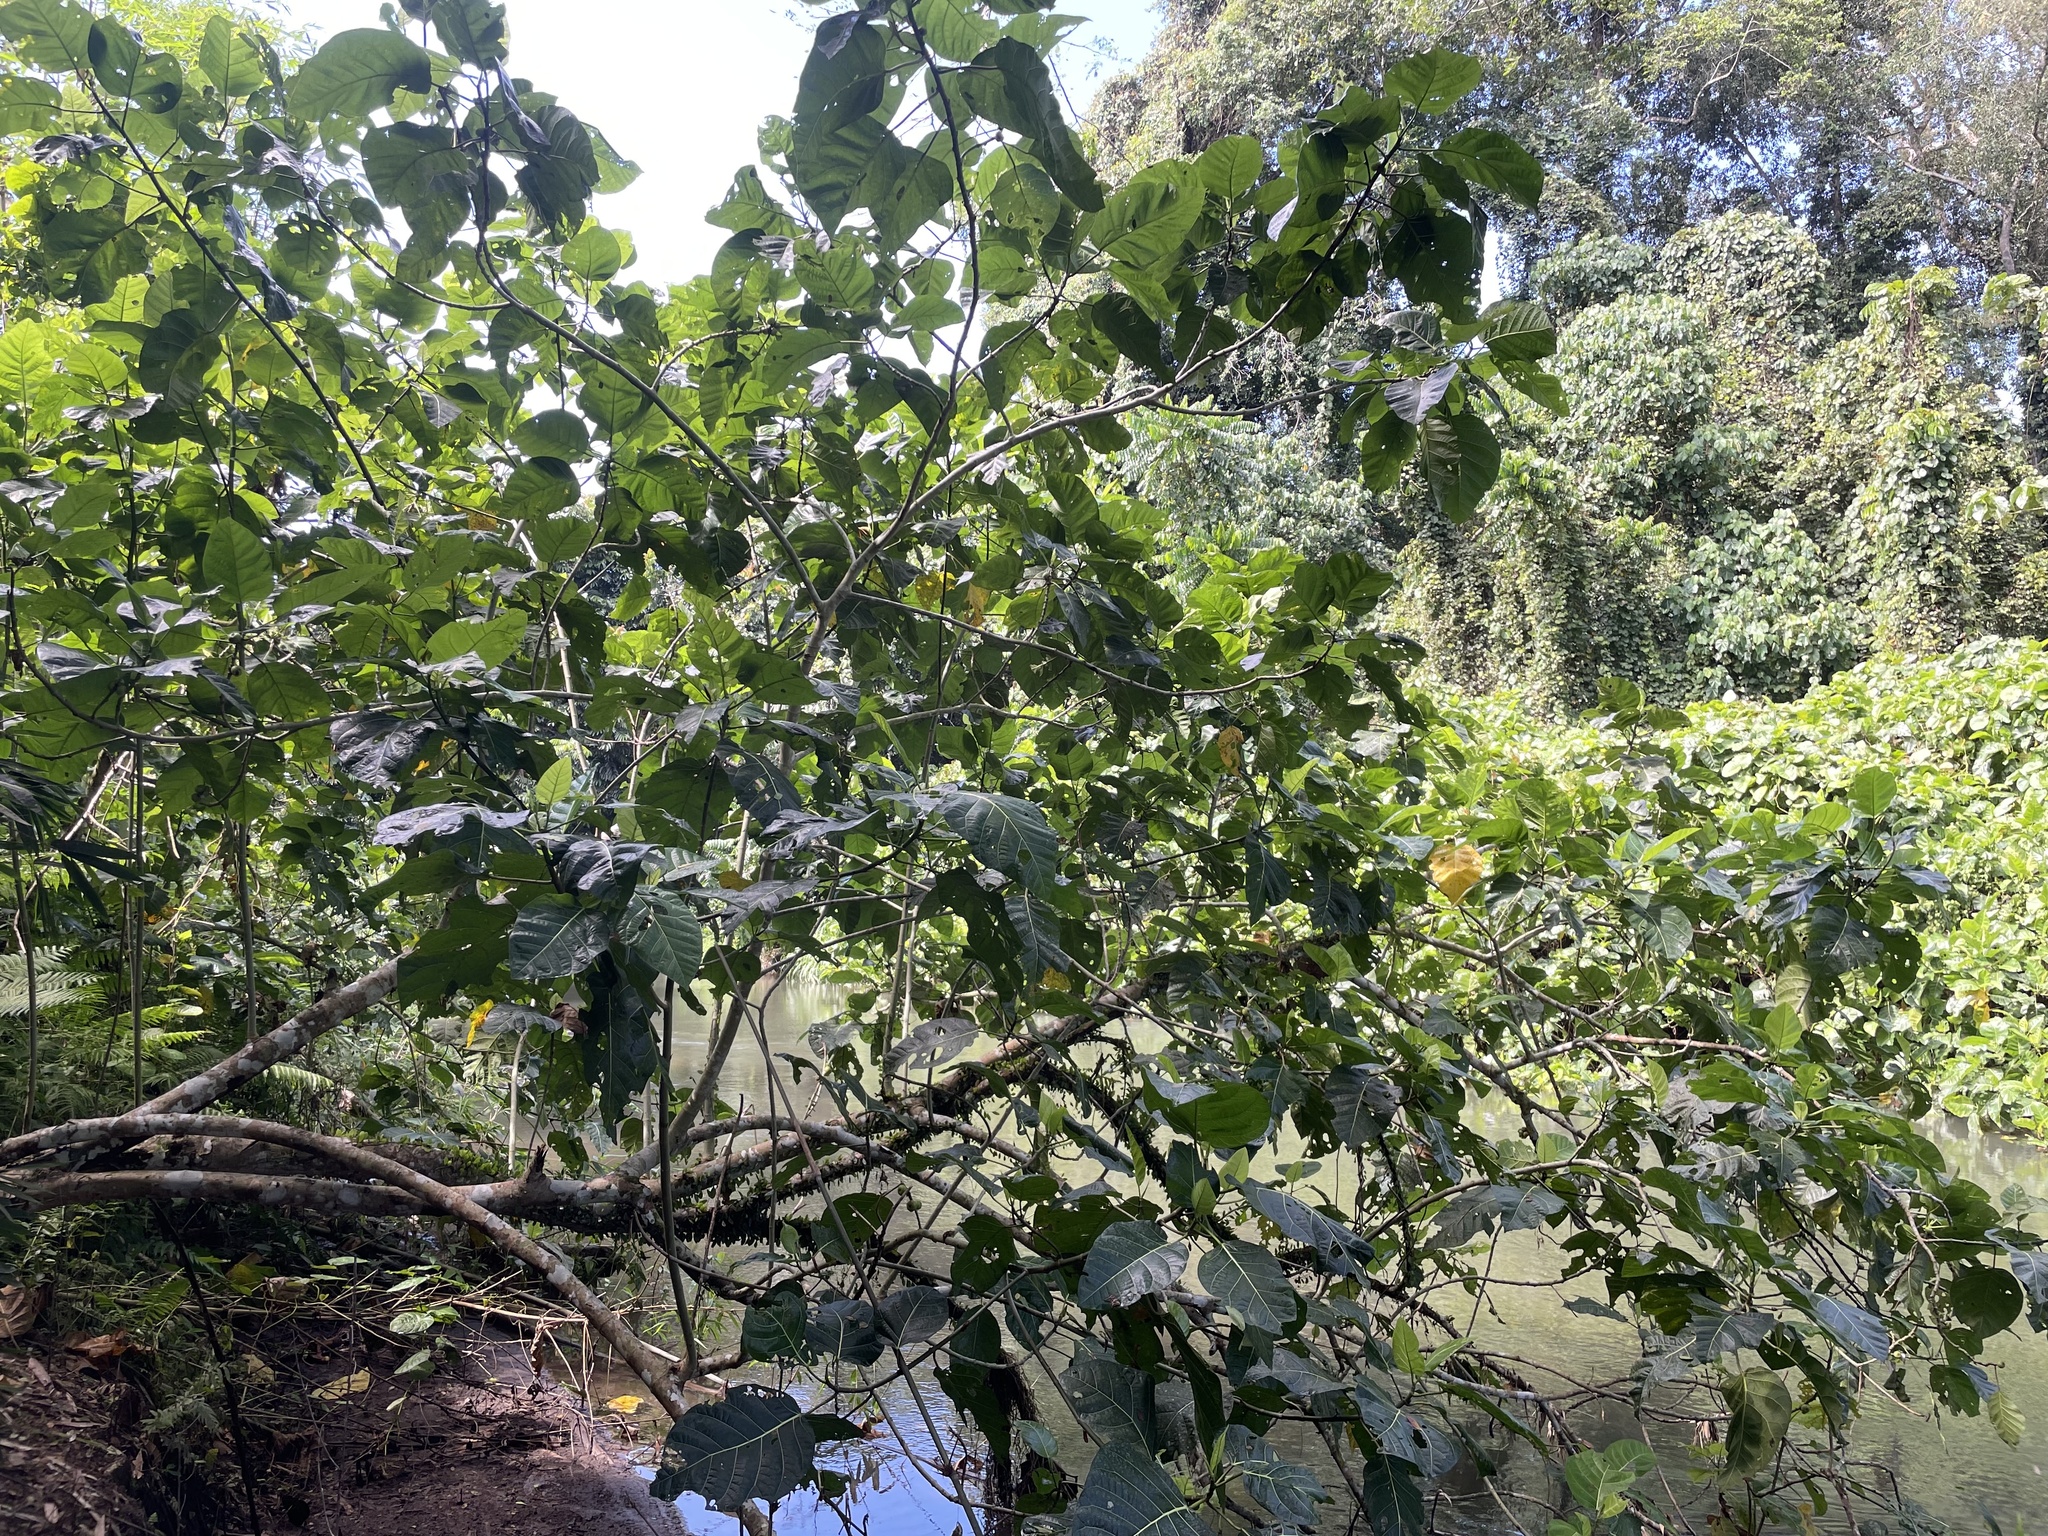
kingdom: Plantae
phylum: Tracheophyta
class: Magnoliopsida
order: Rosales
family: Moraceae
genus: Ficus
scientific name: Ficus septica
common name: Septic fig
